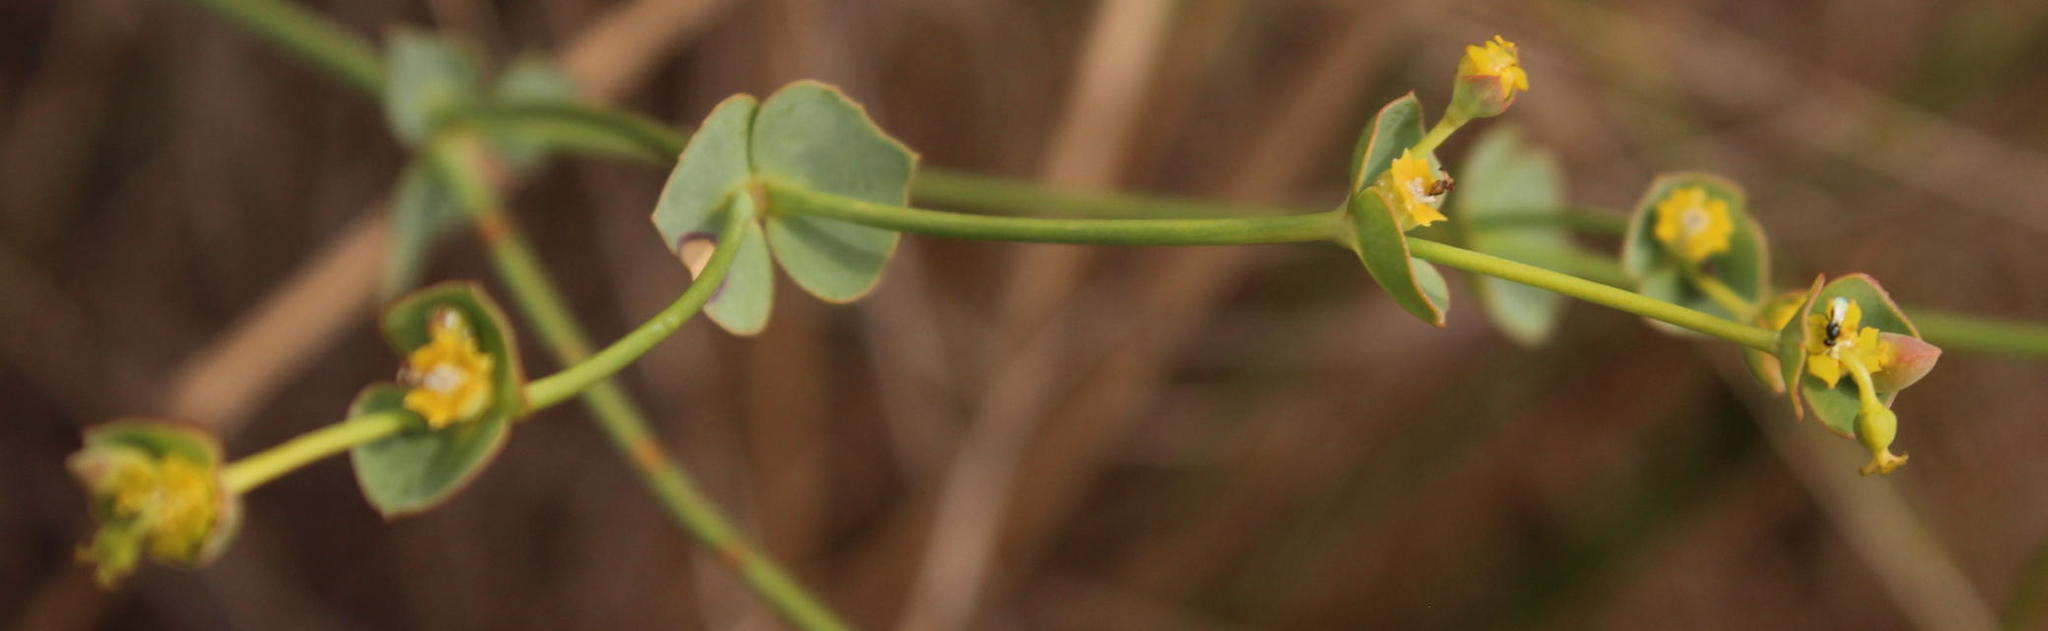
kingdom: Plantae
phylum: Tracheophyta
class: Magnoliopsida
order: Malpighiales
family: Euphorbiaceae
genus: Euphorbia
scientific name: Euphorbia striata
